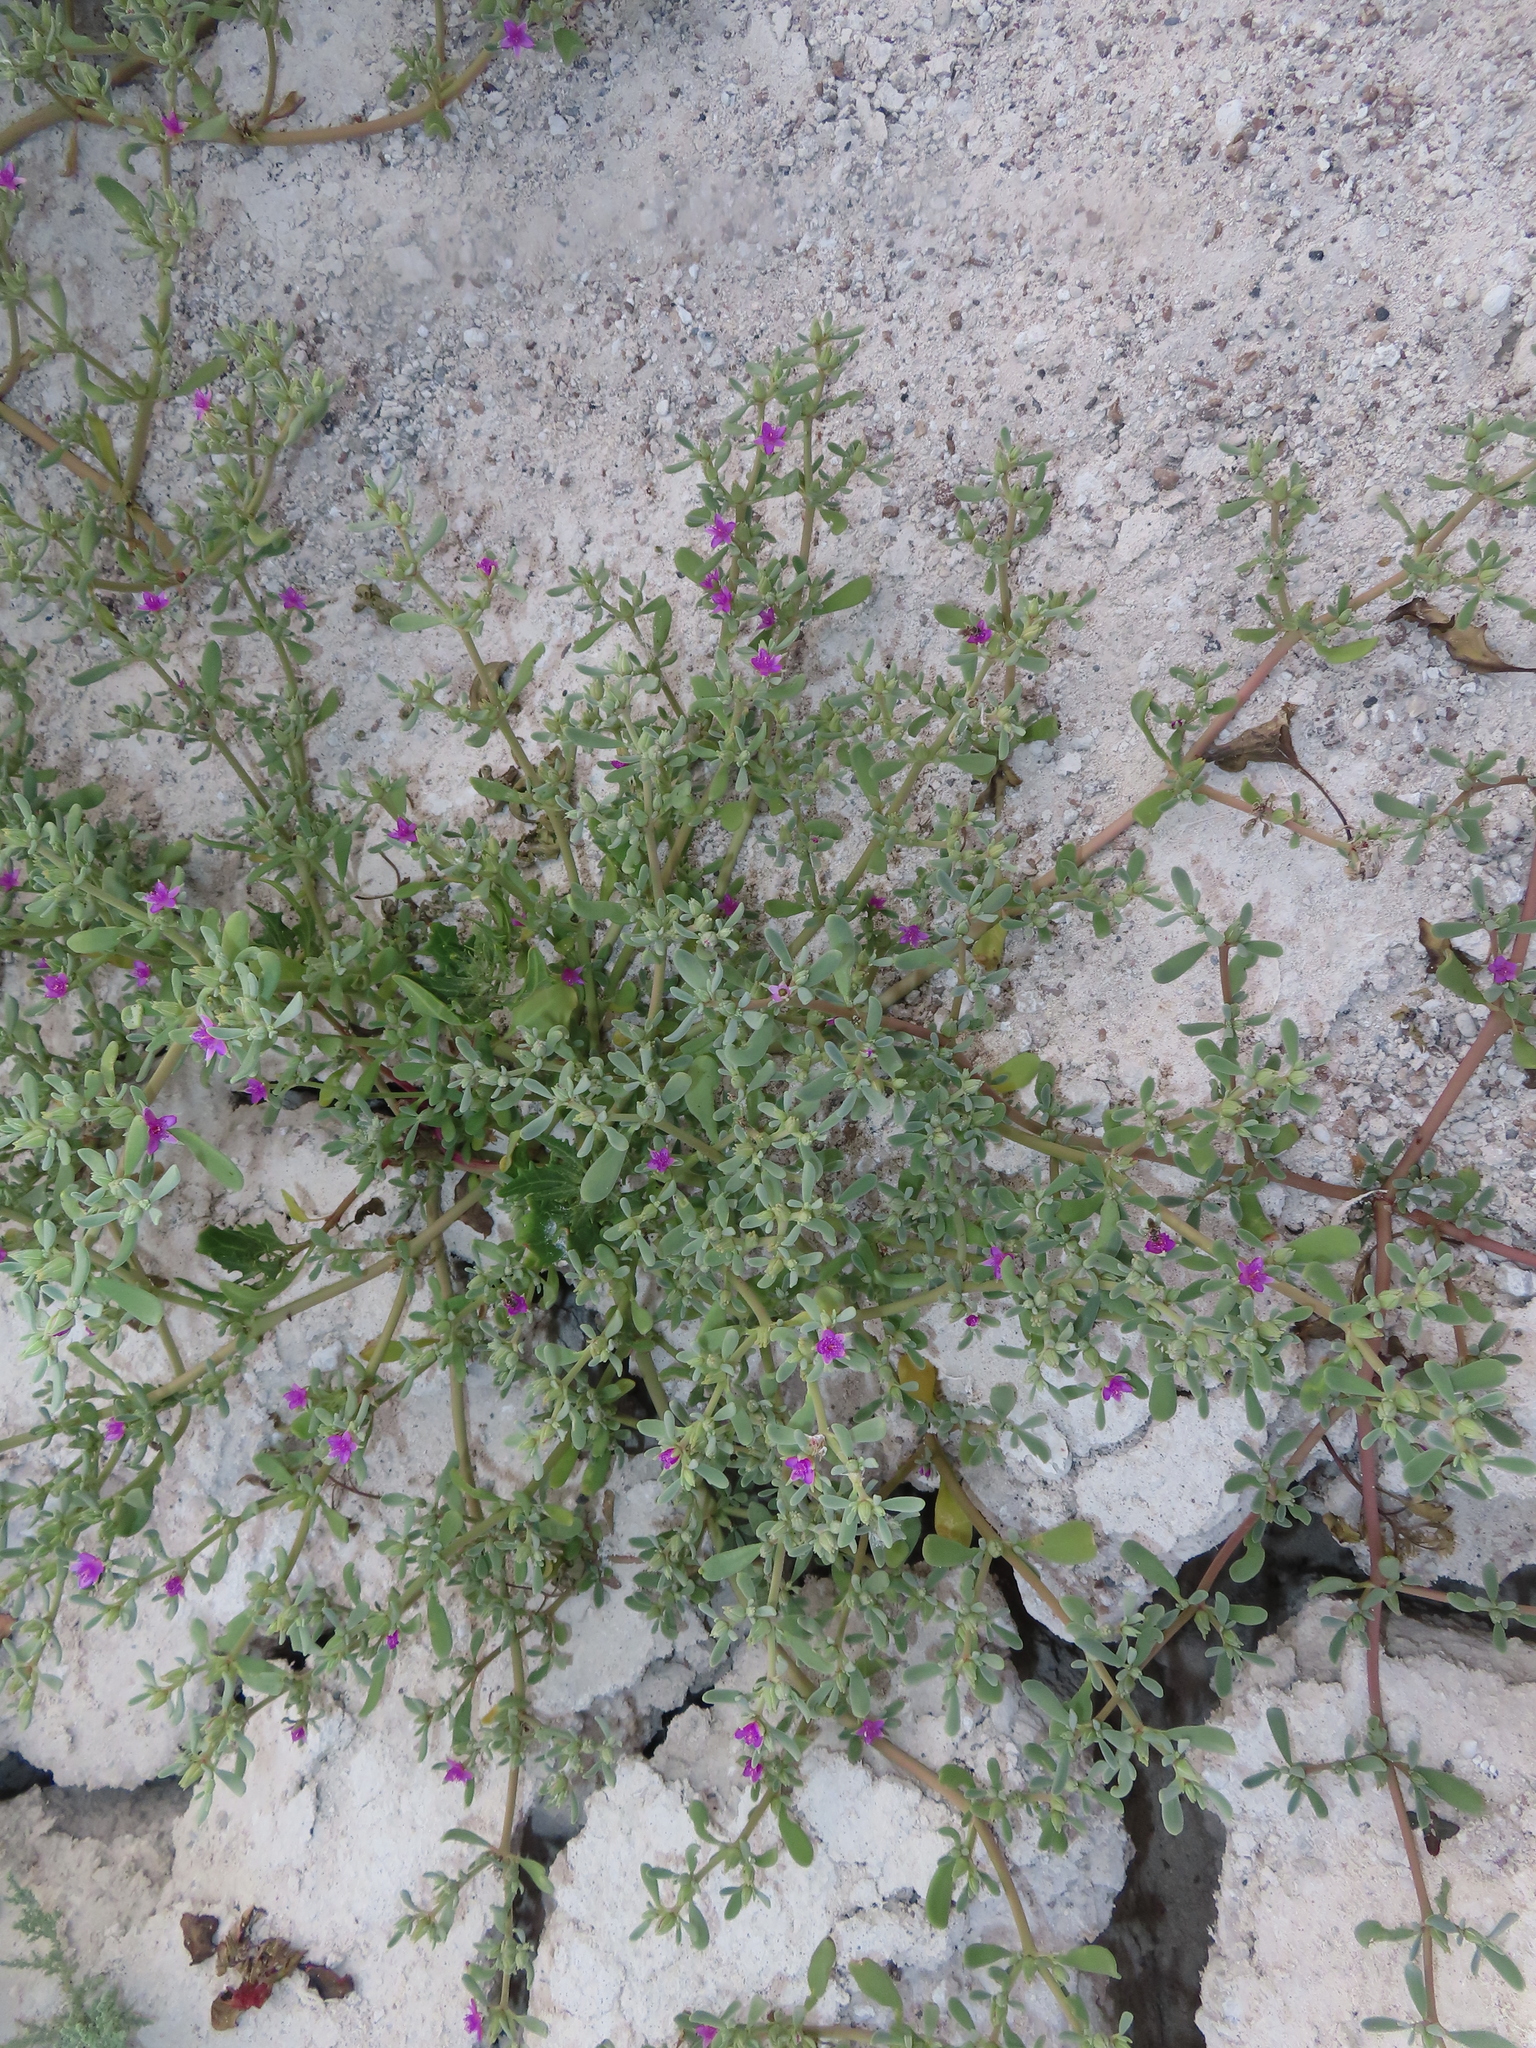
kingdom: Plantae
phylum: Tracheophyta
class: Magnoliopsida
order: Caryophyllales
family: Aizoaceae
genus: Sesuvium
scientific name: Sesuvium revolutifolium
